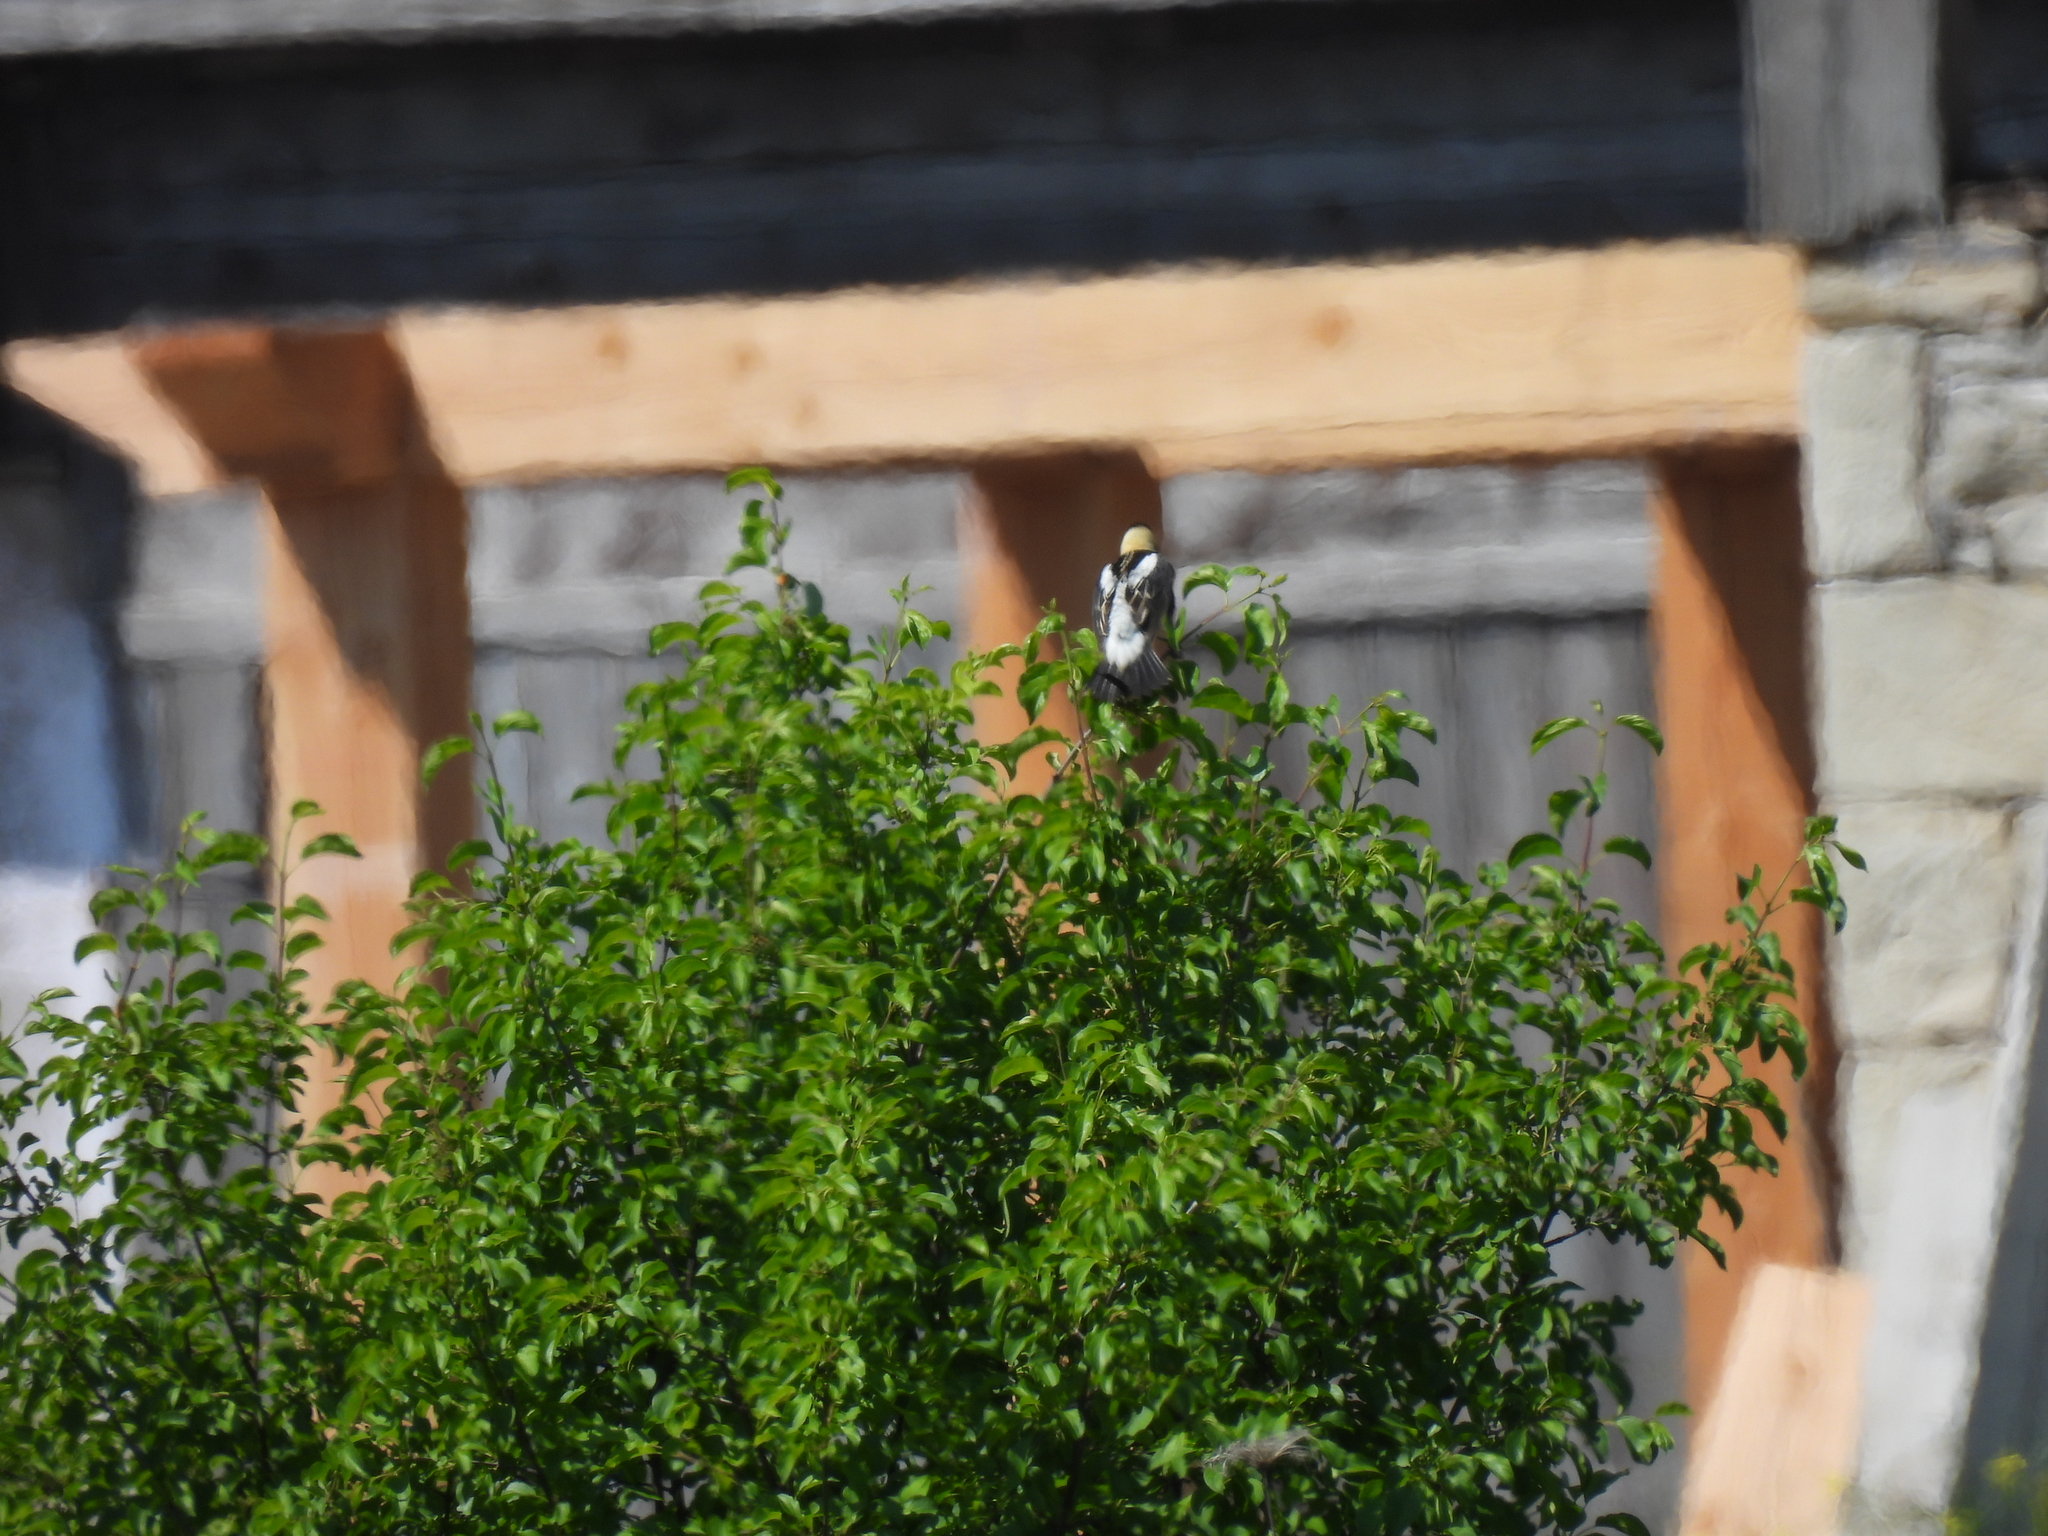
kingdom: Animalia
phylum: Chordata
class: Aves
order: Passeriformes
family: Icteridae
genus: Dolichonyx
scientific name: Dolichonyx oryzivorus
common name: Bobolink
